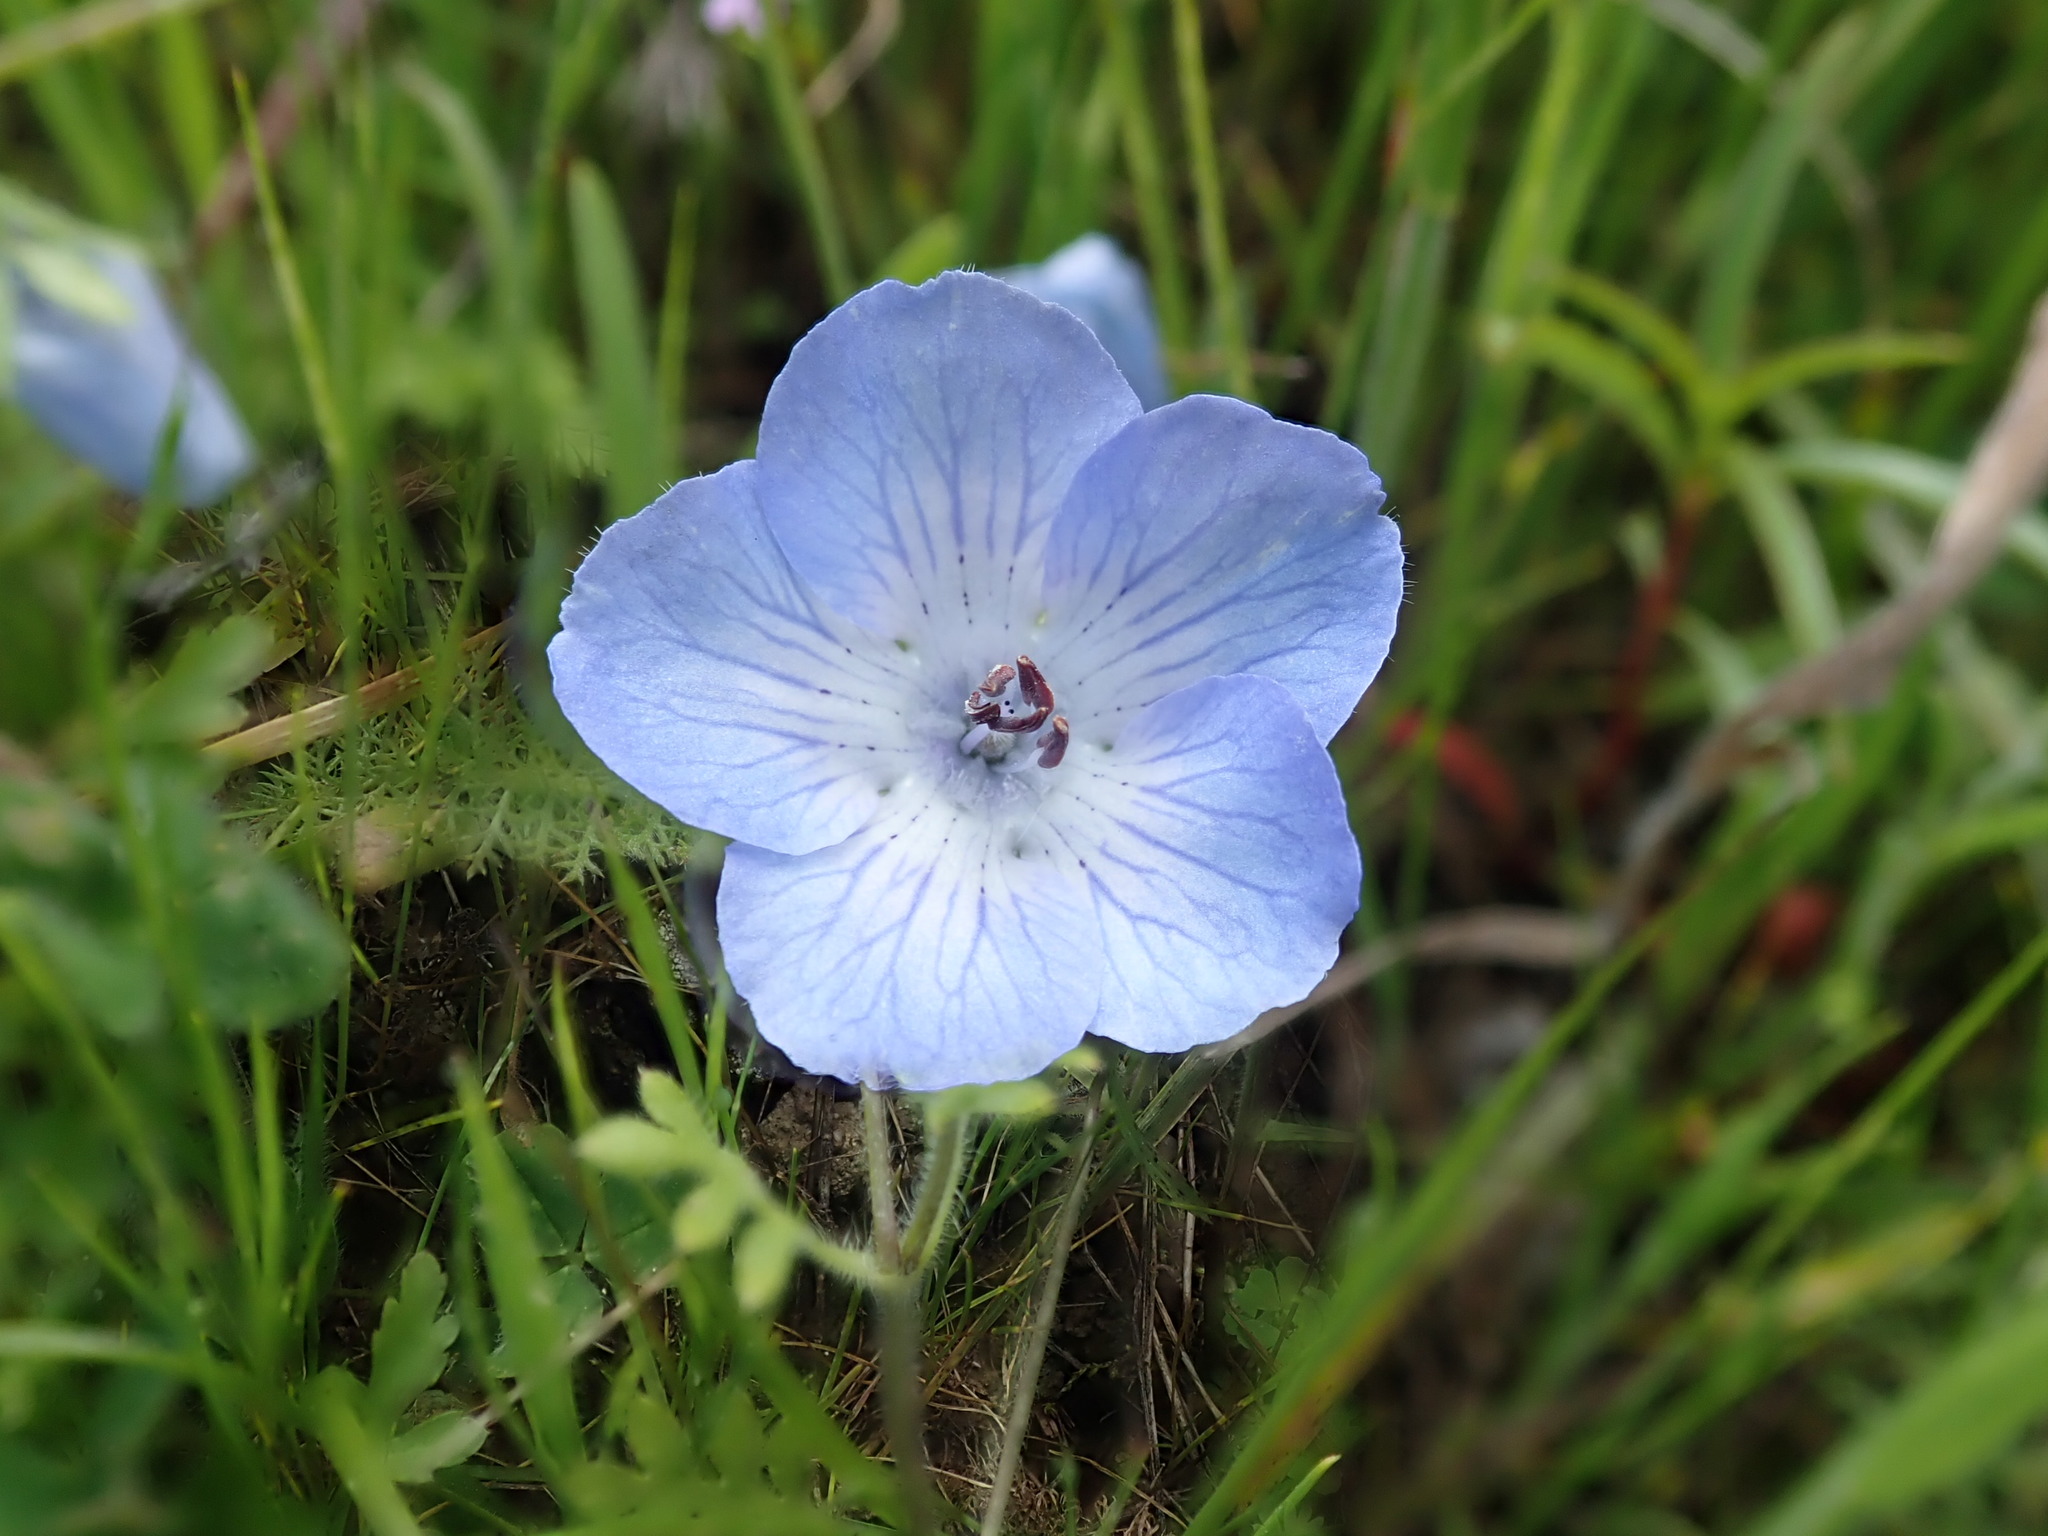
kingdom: Plantae
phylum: Tracheophyta
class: Magnoliopsida
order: Boraginales
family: Hydrophyllaceae
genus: Nemophila
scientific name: Nemophila menziesii
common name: Baby's-blue-eyes
